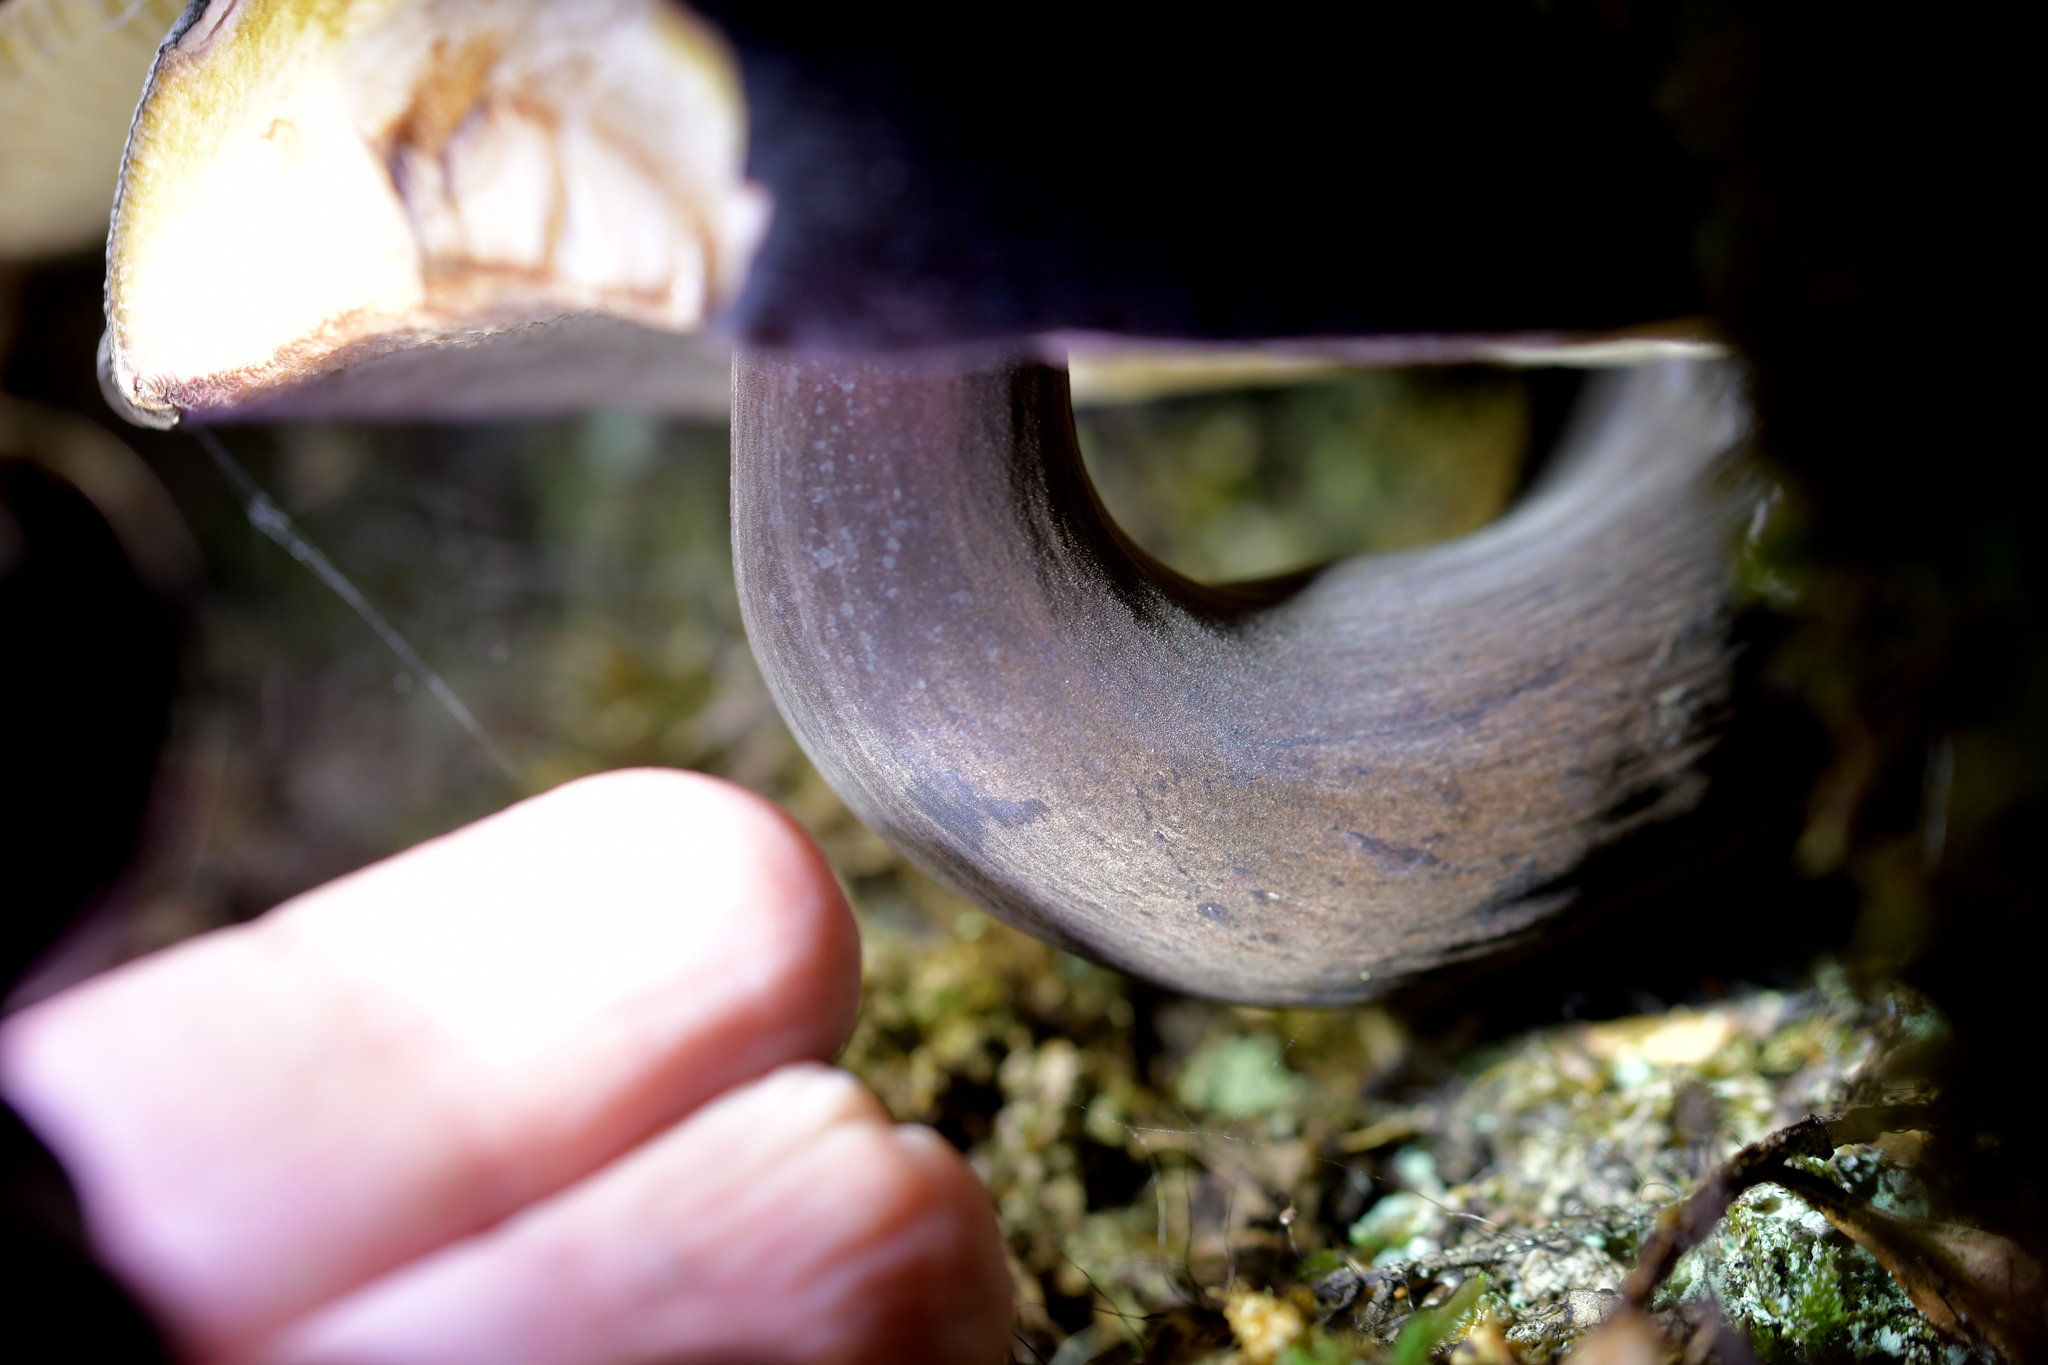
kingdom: Fungi
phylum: Basidiomycota
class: Agaricomycetes
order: Boletales
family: Boletaceae
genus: Porphyrellus
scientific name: Porphyrellus formosus
